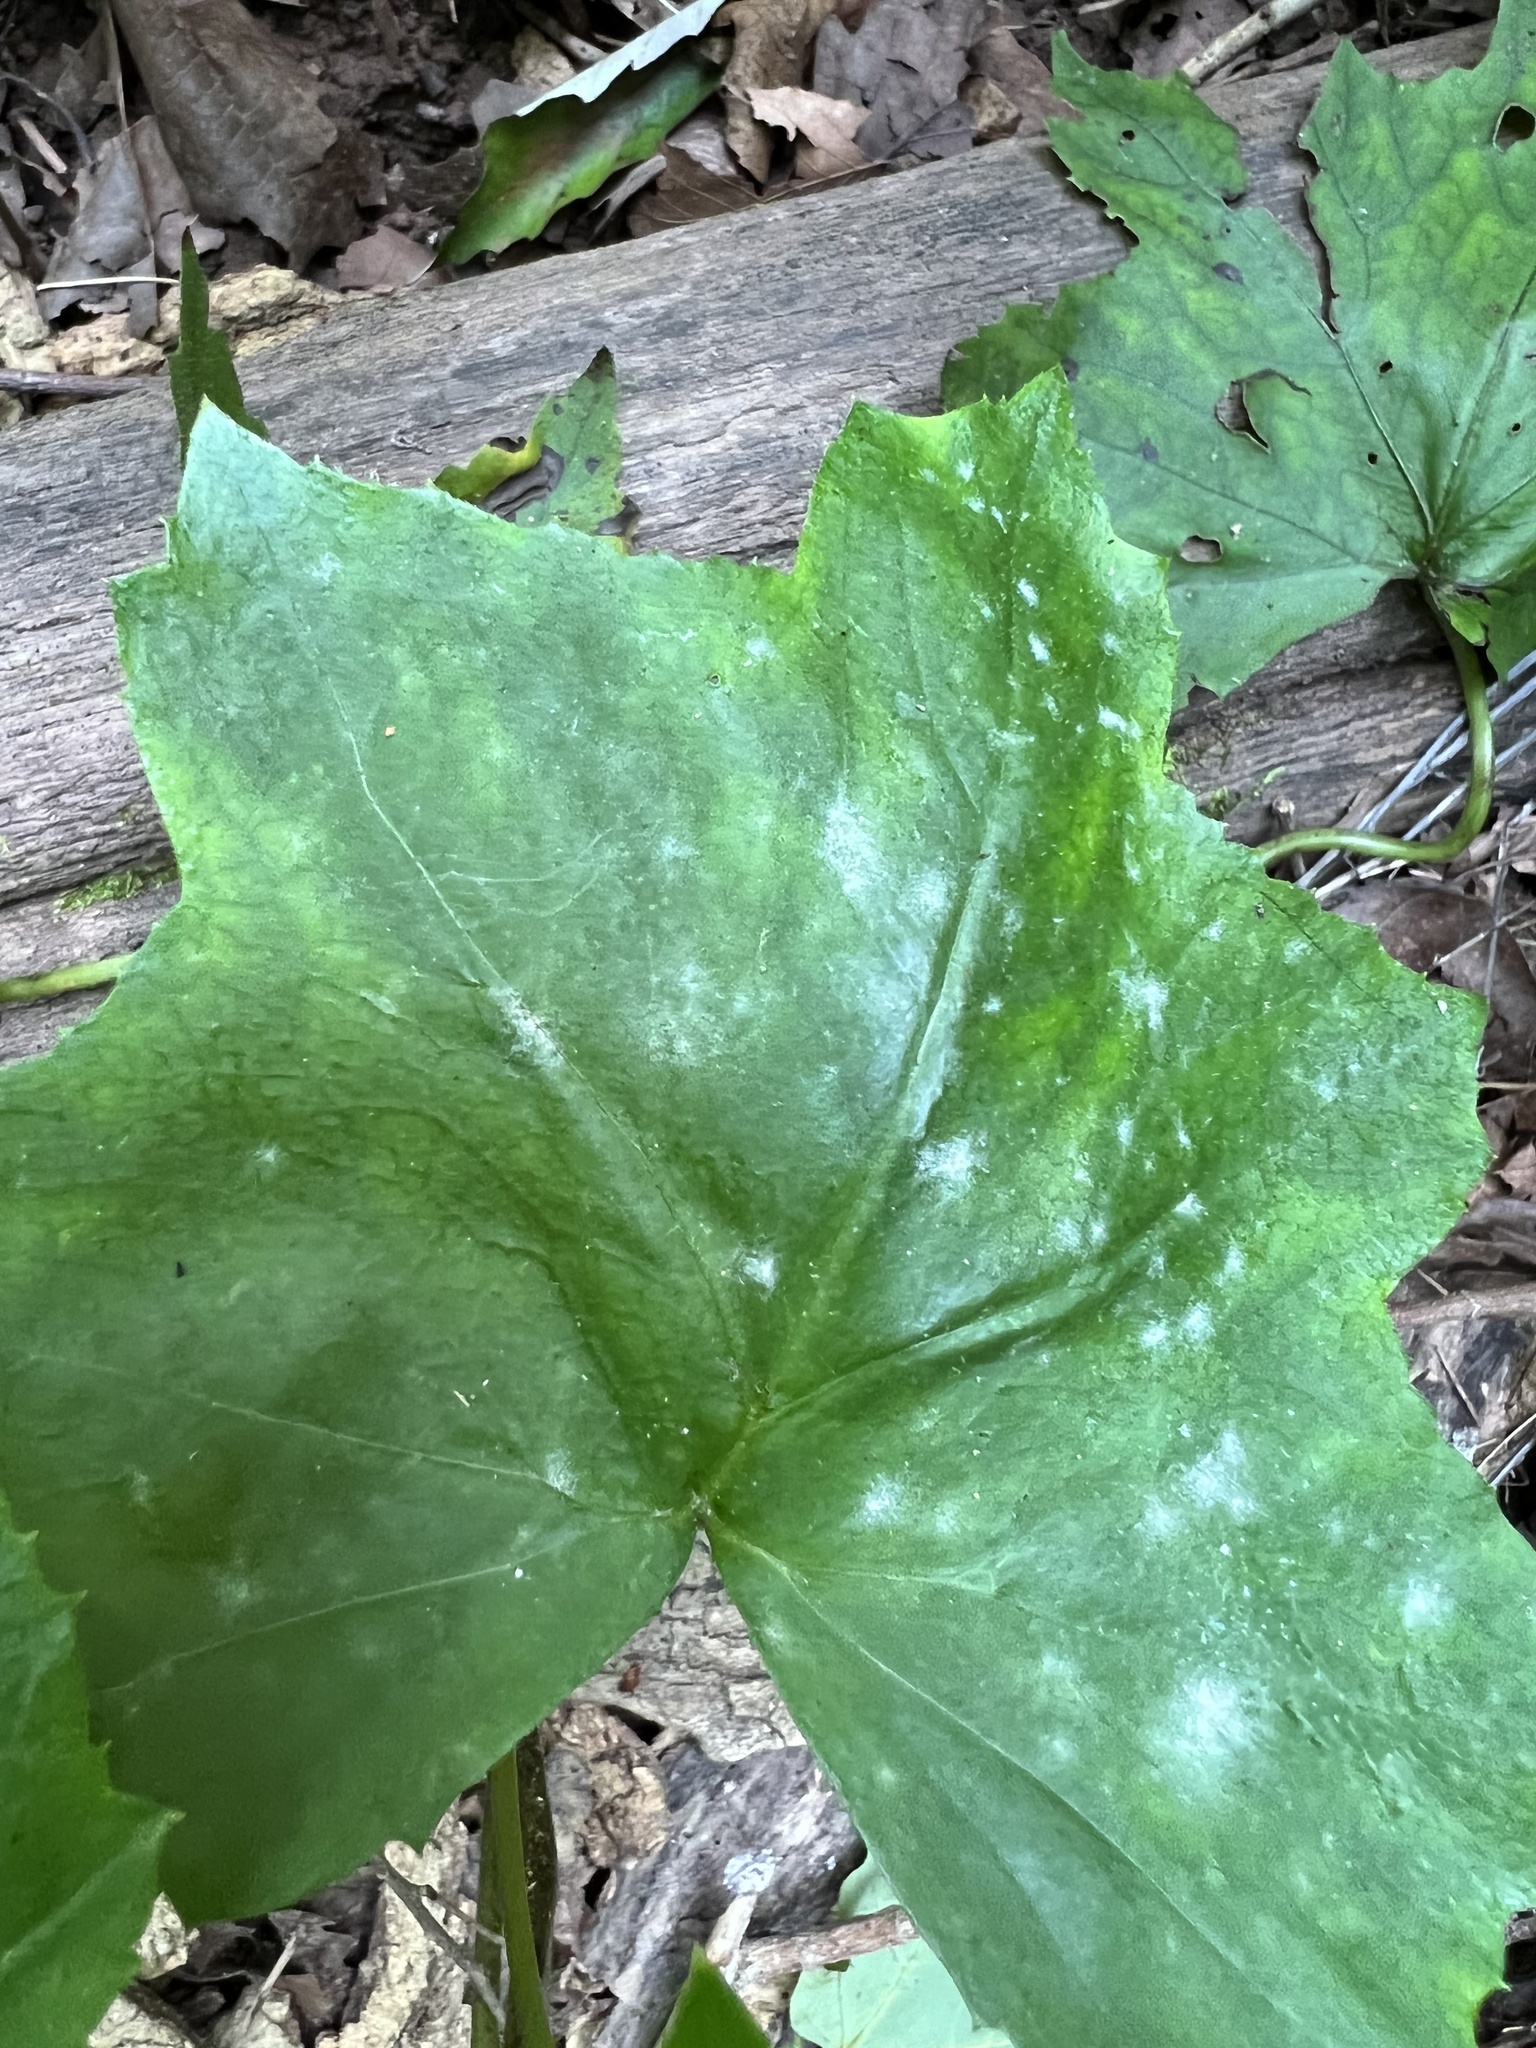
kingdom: Fungi
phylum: Ascomycota
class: Leotiomycetes
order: Helotiales
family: Erysiphaceae
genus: Golovinomyces
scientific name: Golovinomyces hydrophyllacearum
